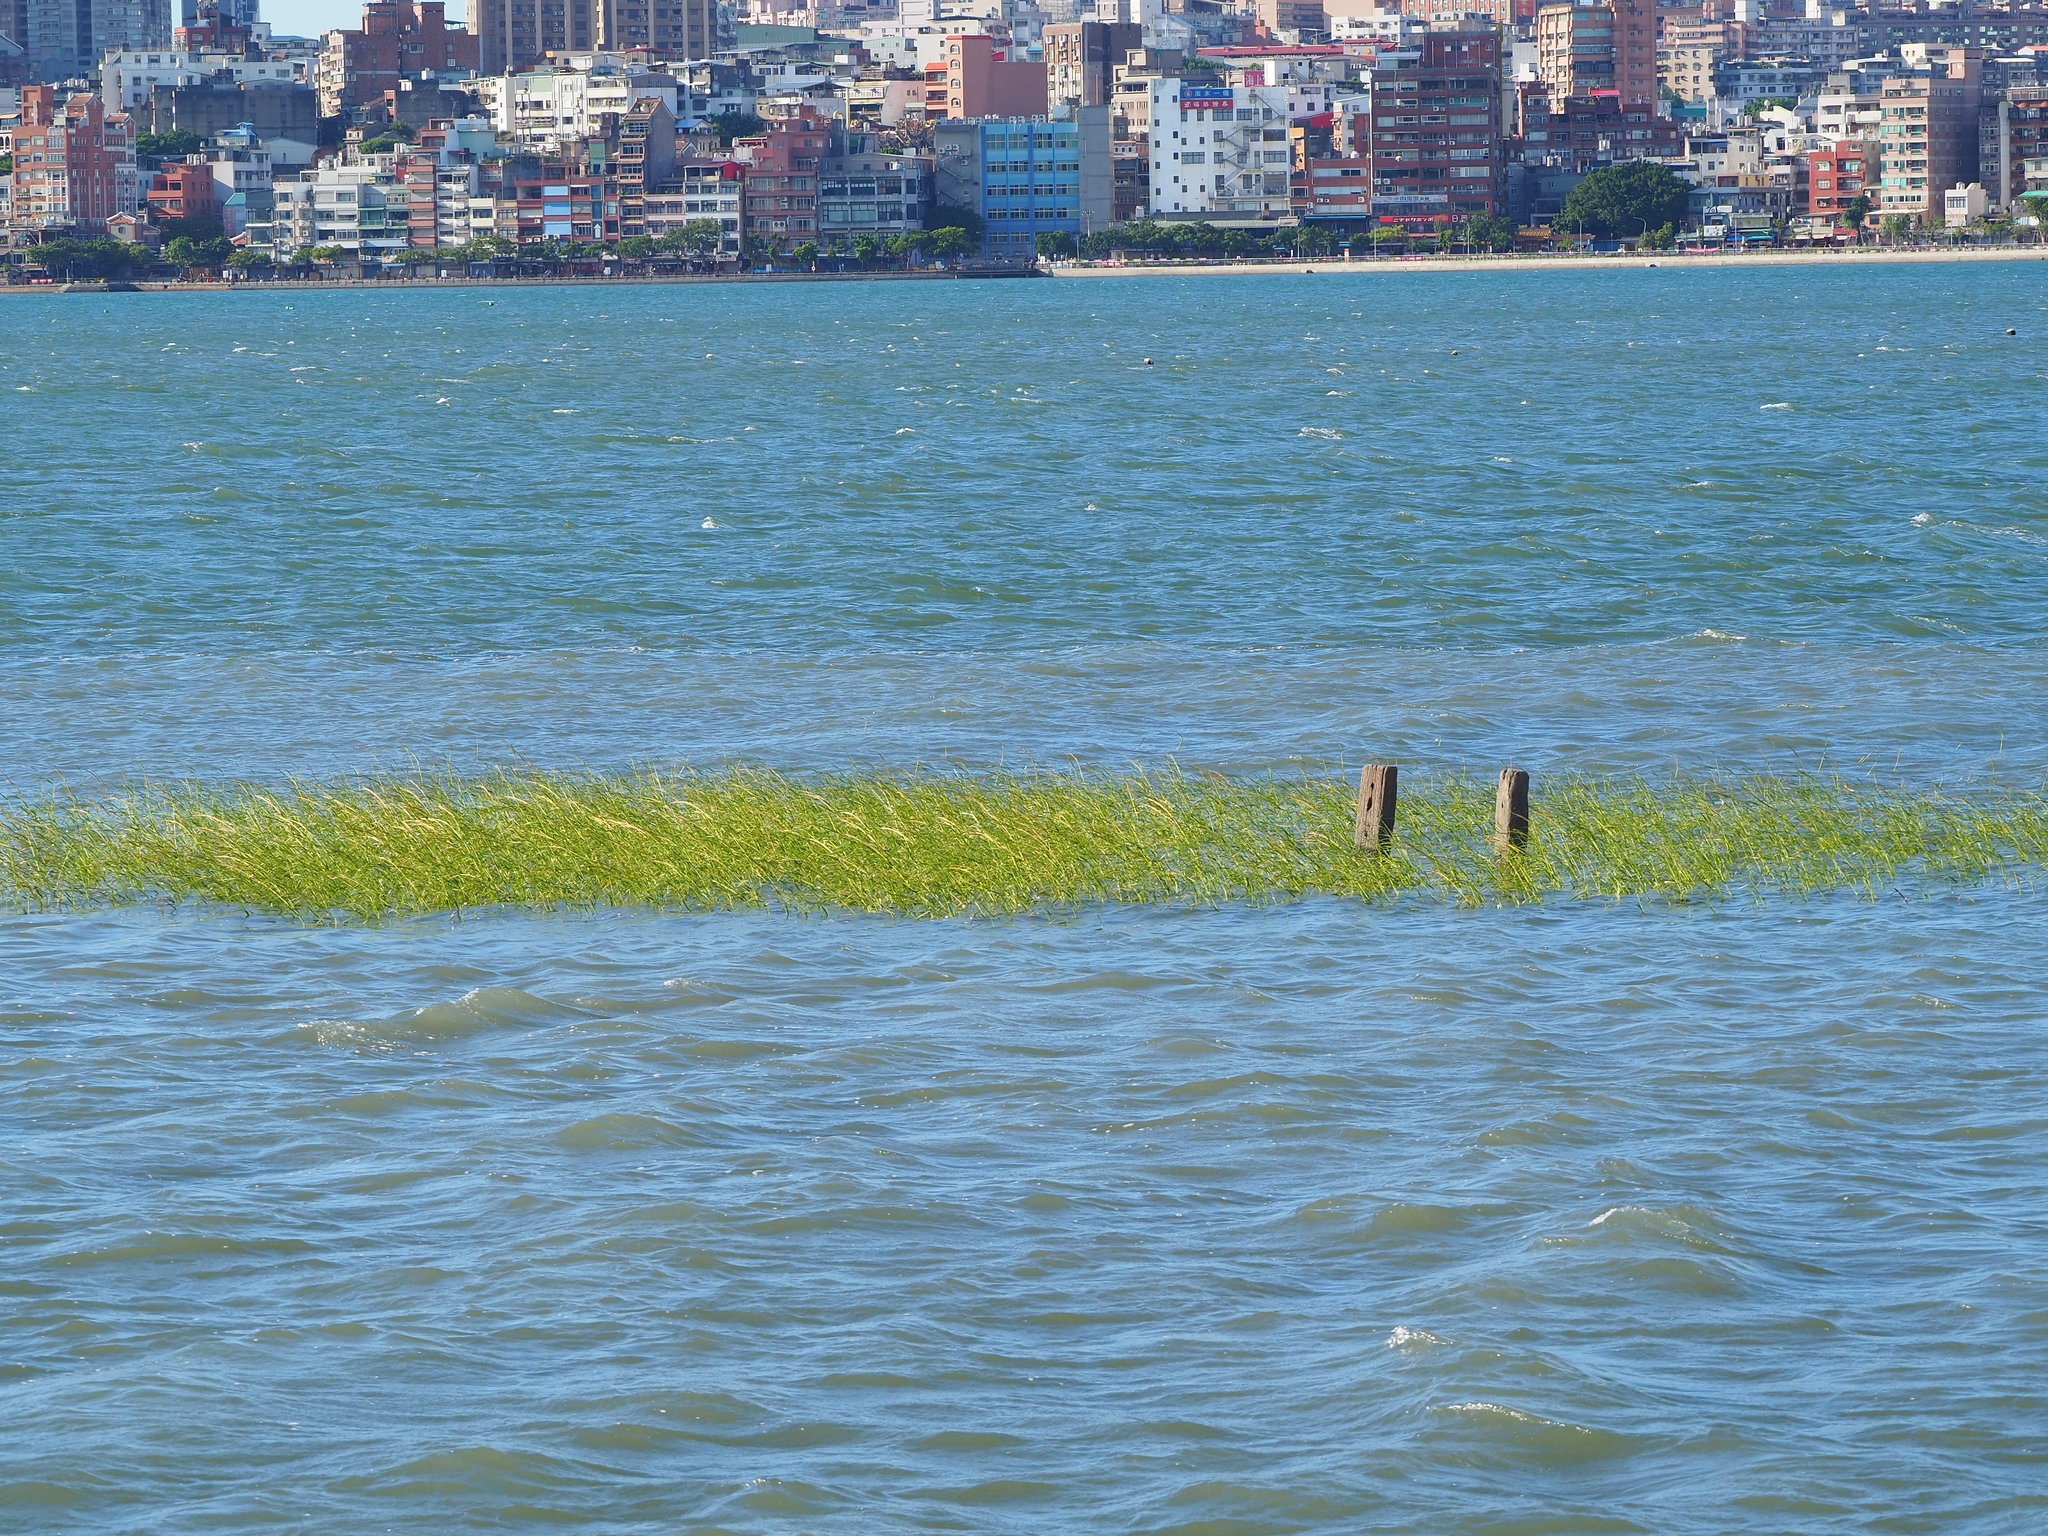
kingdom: Plantae
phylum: Tracheophyta
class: Liliopsida
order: Poales
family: Poaceae
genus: Sporobolus
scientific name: Sporobolus alterniflorus
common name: Atlantic cordgrass
